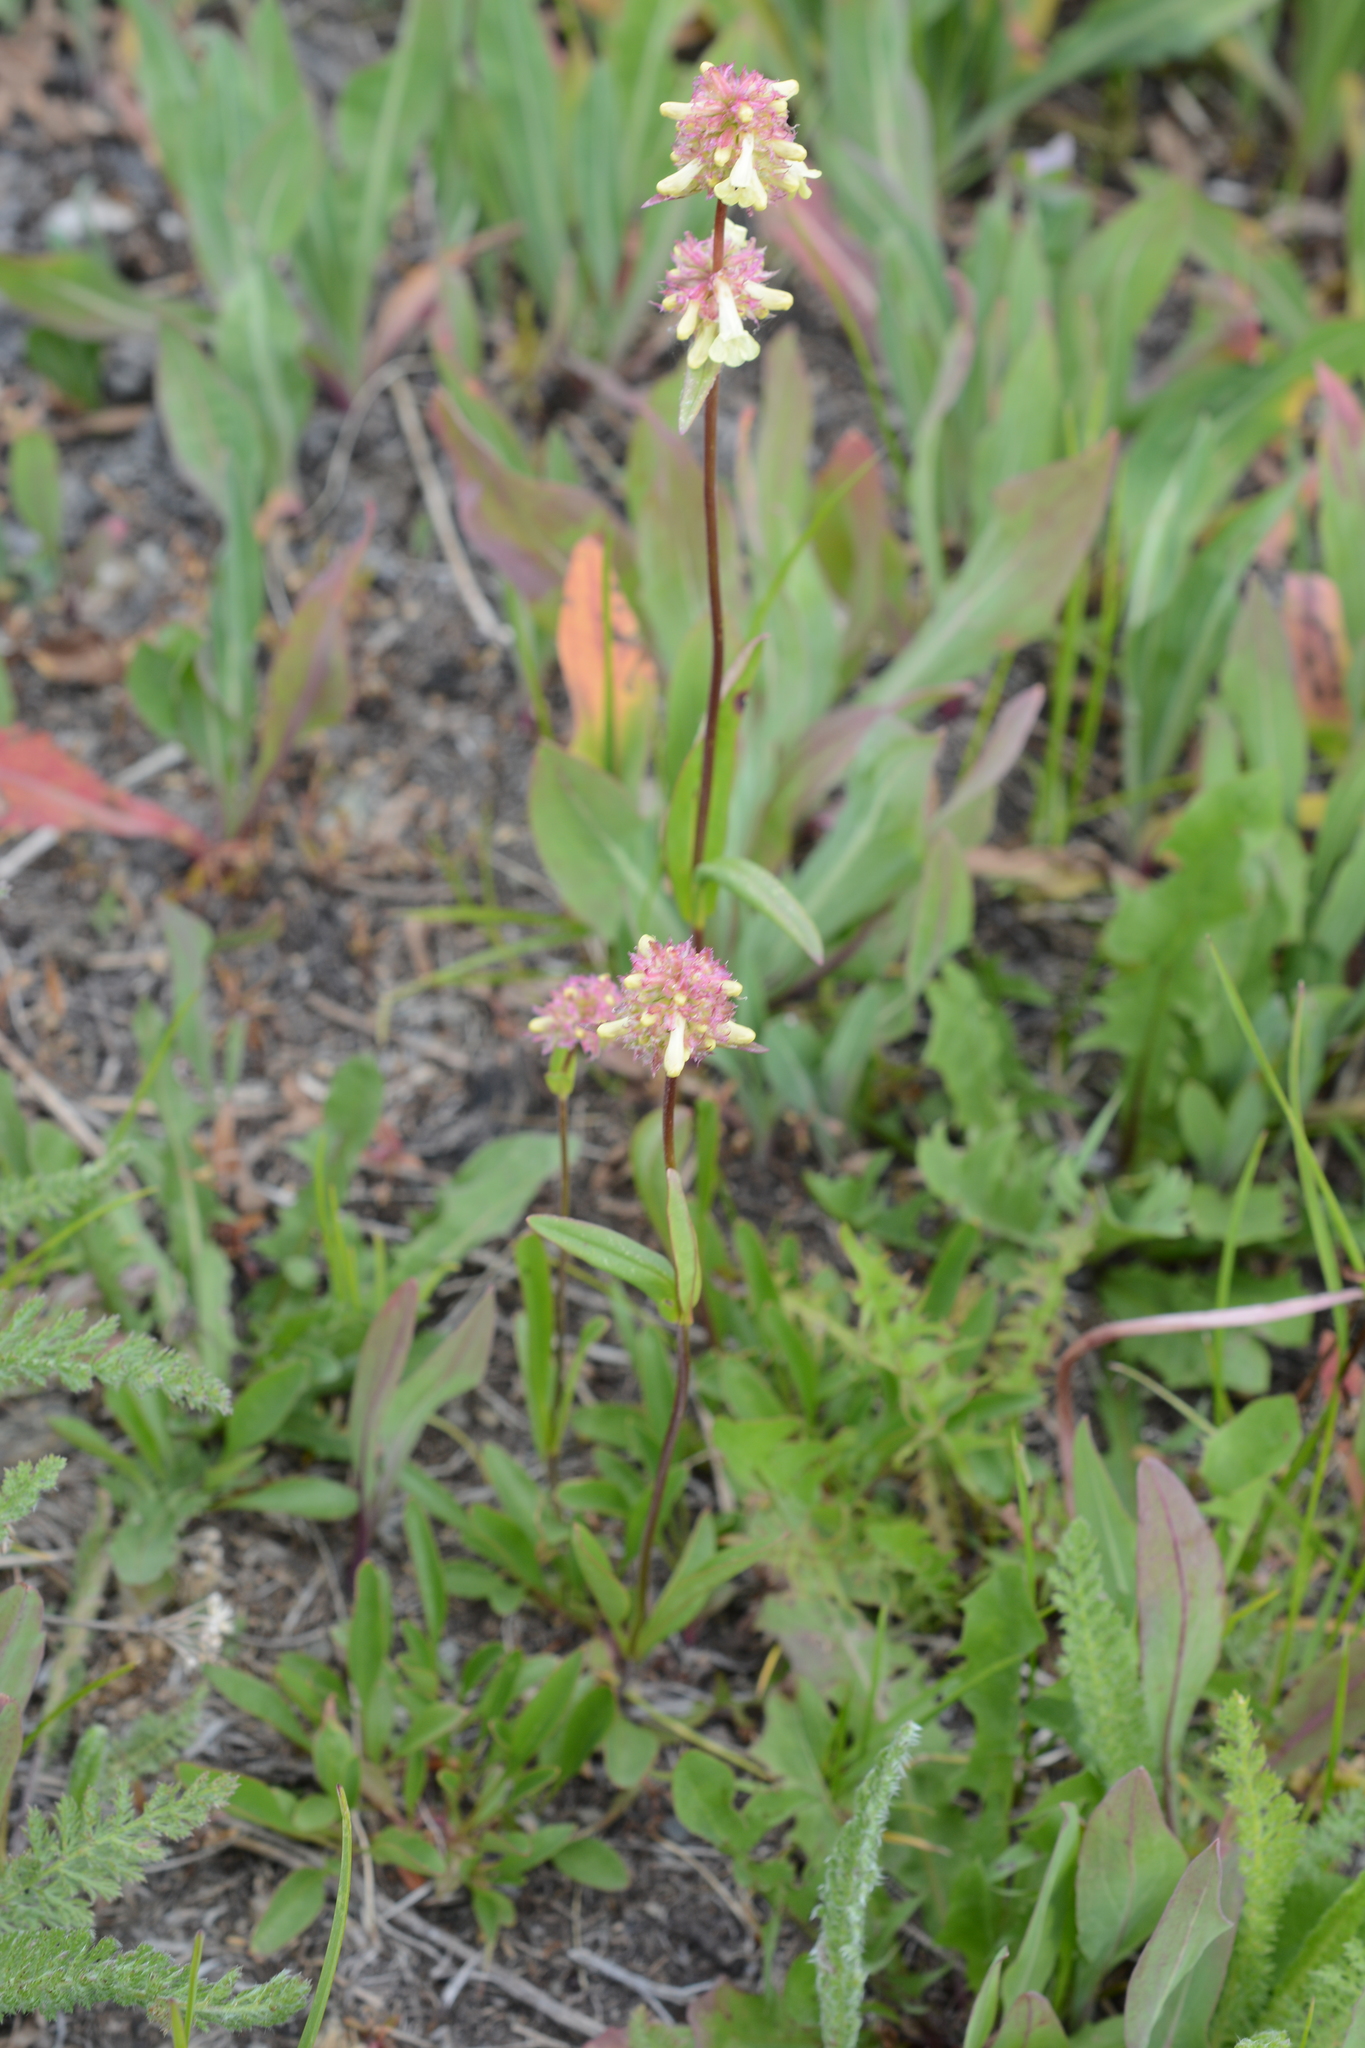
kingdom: Plantae
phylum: Tracheophyta
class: Magnoliopsida
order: Lamiales
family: Plantaginaceae
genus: Penstemon
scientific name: Penstemon confertus
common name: Lesser yellow beardtongue
